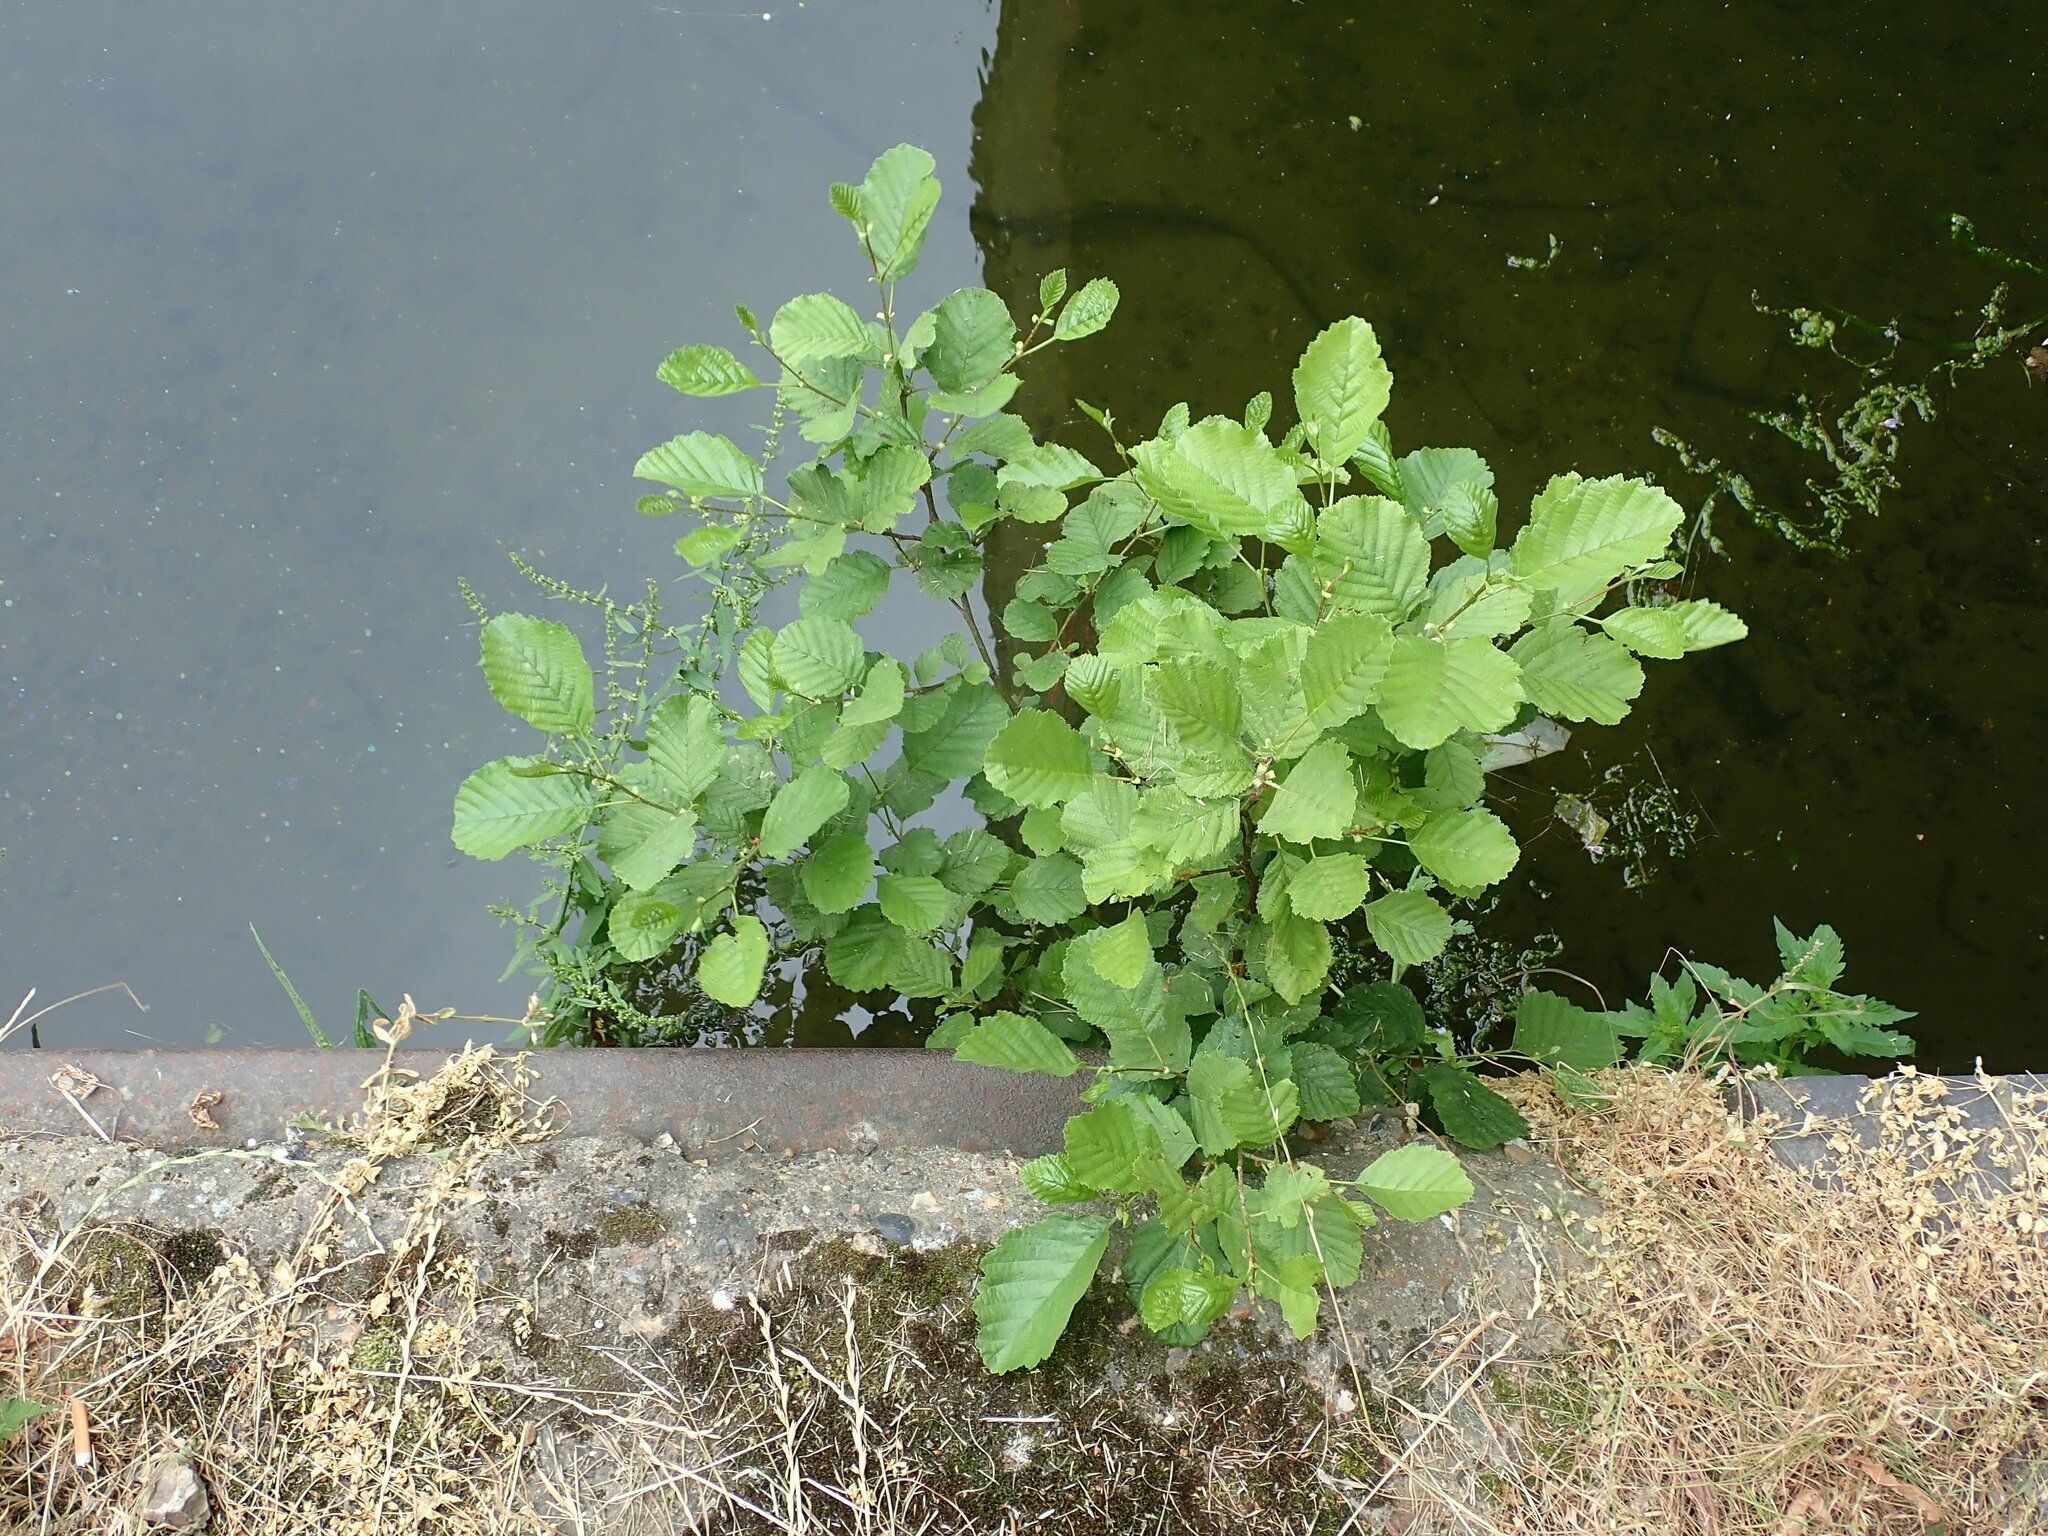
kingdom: Plantae
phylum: Tracheophyta
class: Magnoliopsida
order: Fagales
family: Betulaceae
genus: Alnus
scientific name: Alnus glutinosa
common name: Black alder
